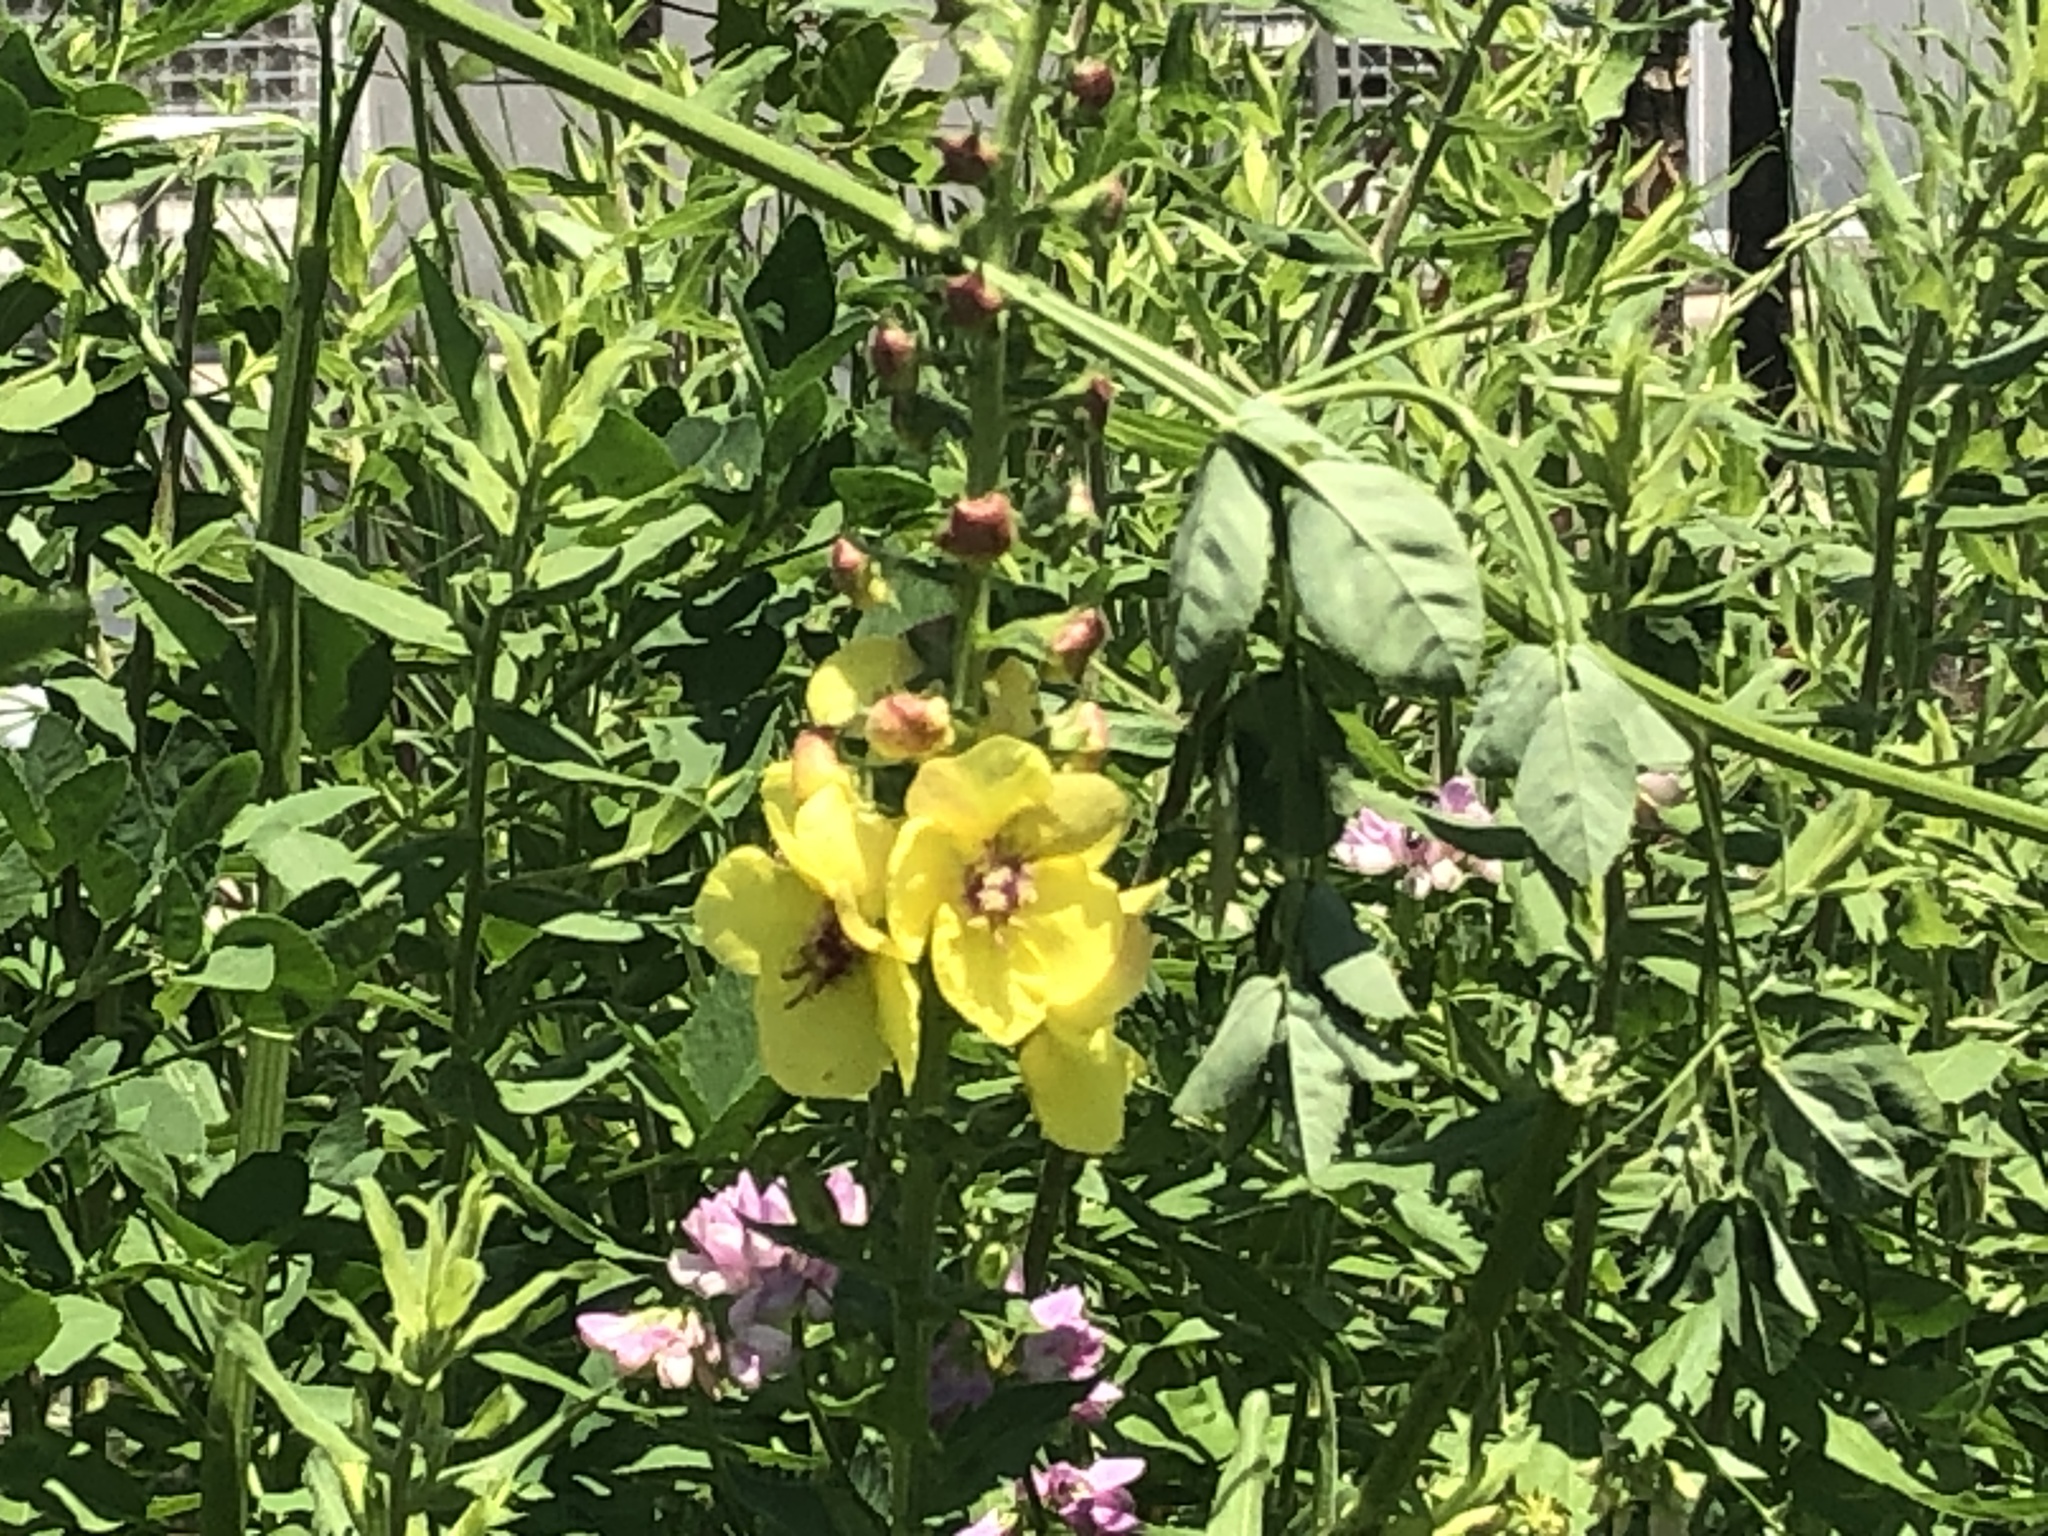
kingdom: Plantae
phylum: Tracheophyta
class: Magnoliopsida
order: Lamiales
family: Scrophulariaceae
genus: Verbascum
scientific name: Verbascum blattaria
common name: Moth mullein
